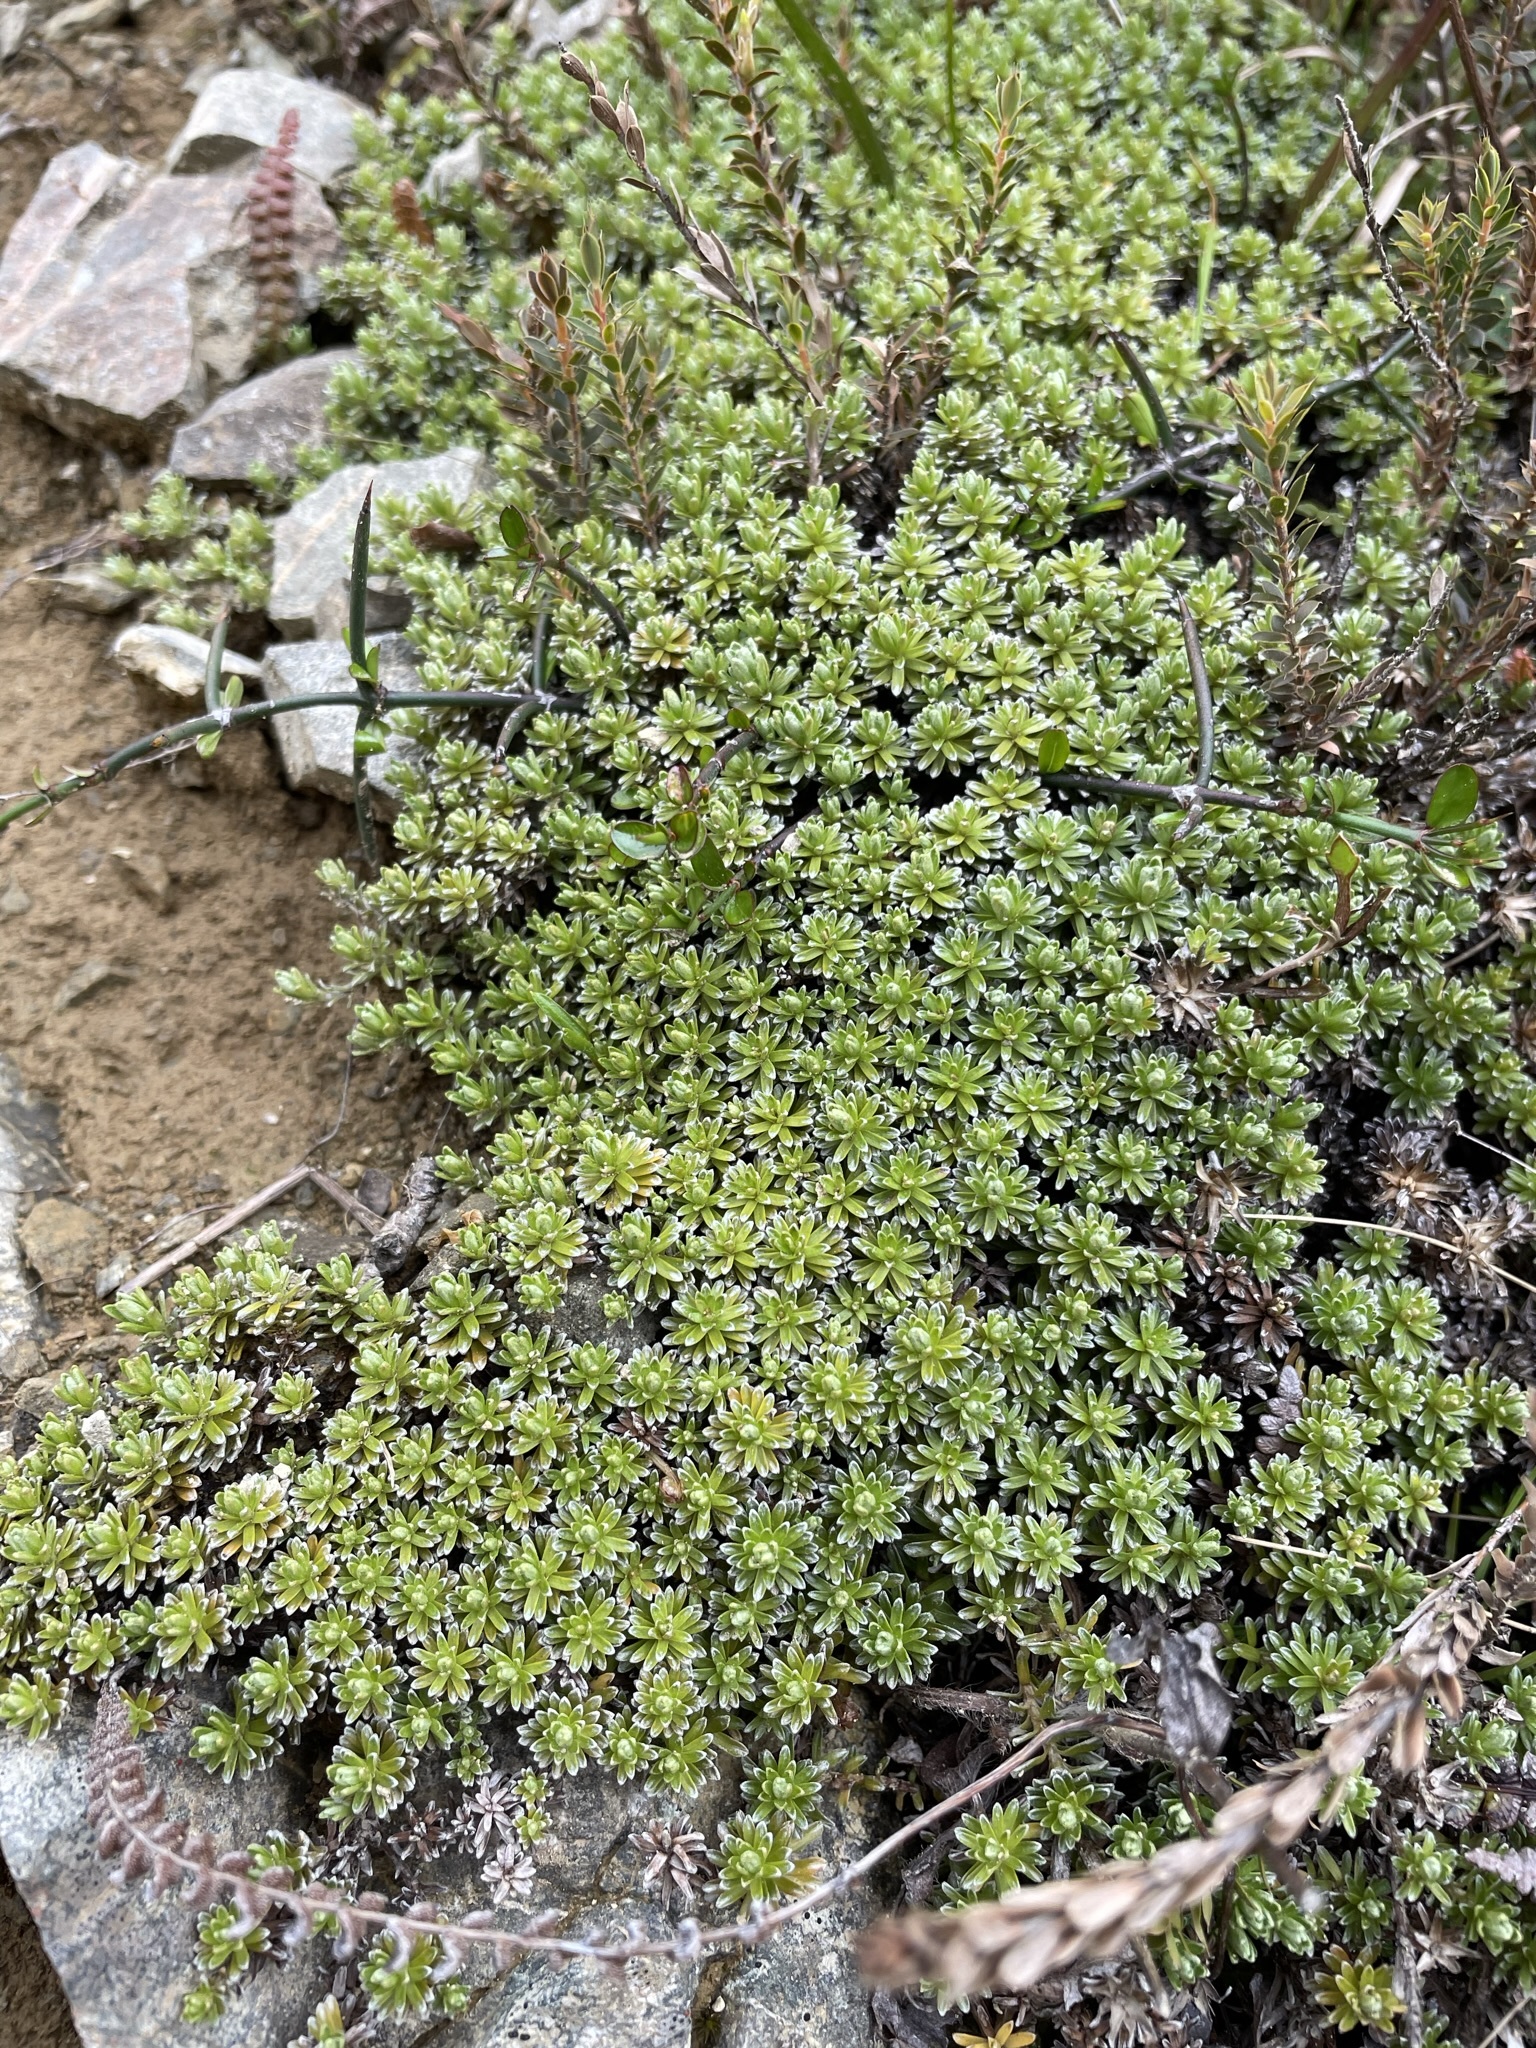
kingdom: Plantae
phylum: Tracheophyta
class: Magnoliopsida
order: Asterales
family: Asteraceae
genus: Raoulia
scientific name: Raoulia subsericea
